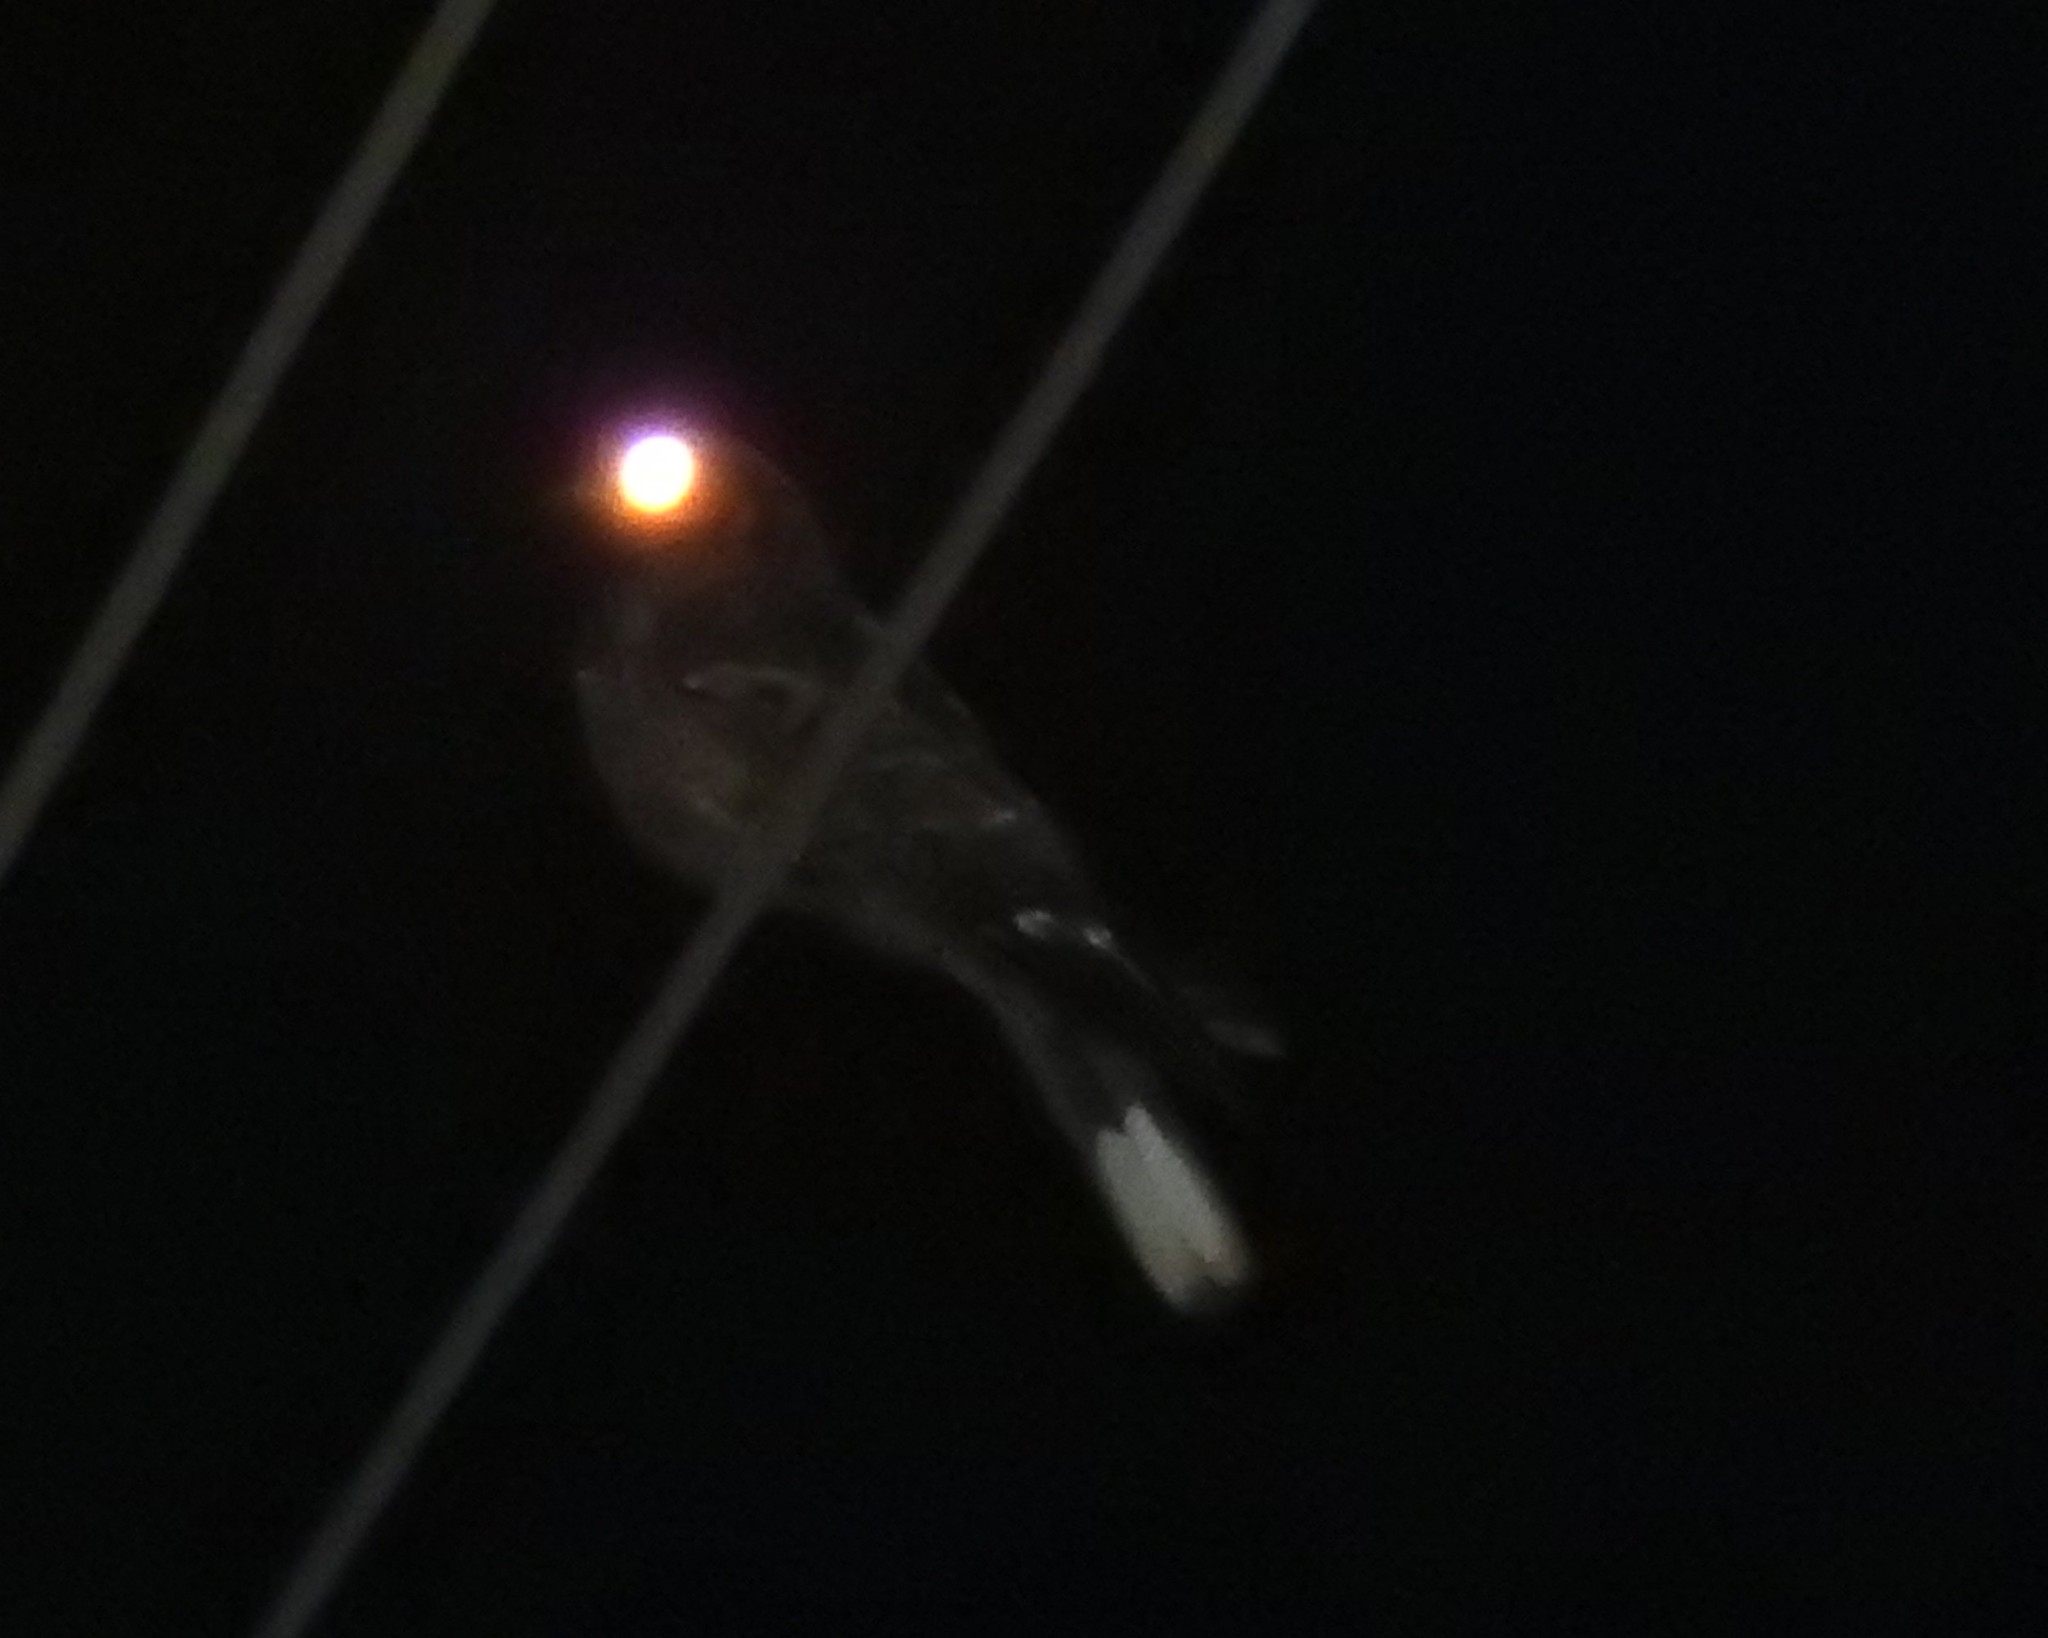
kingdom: Animalia
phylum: Chordata
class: Aves
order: Caprimulgiformes
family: Caprimulgidae
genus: Caprimulgus
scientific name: Caprimulgus atripennis
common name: Jerdon's nightjar
